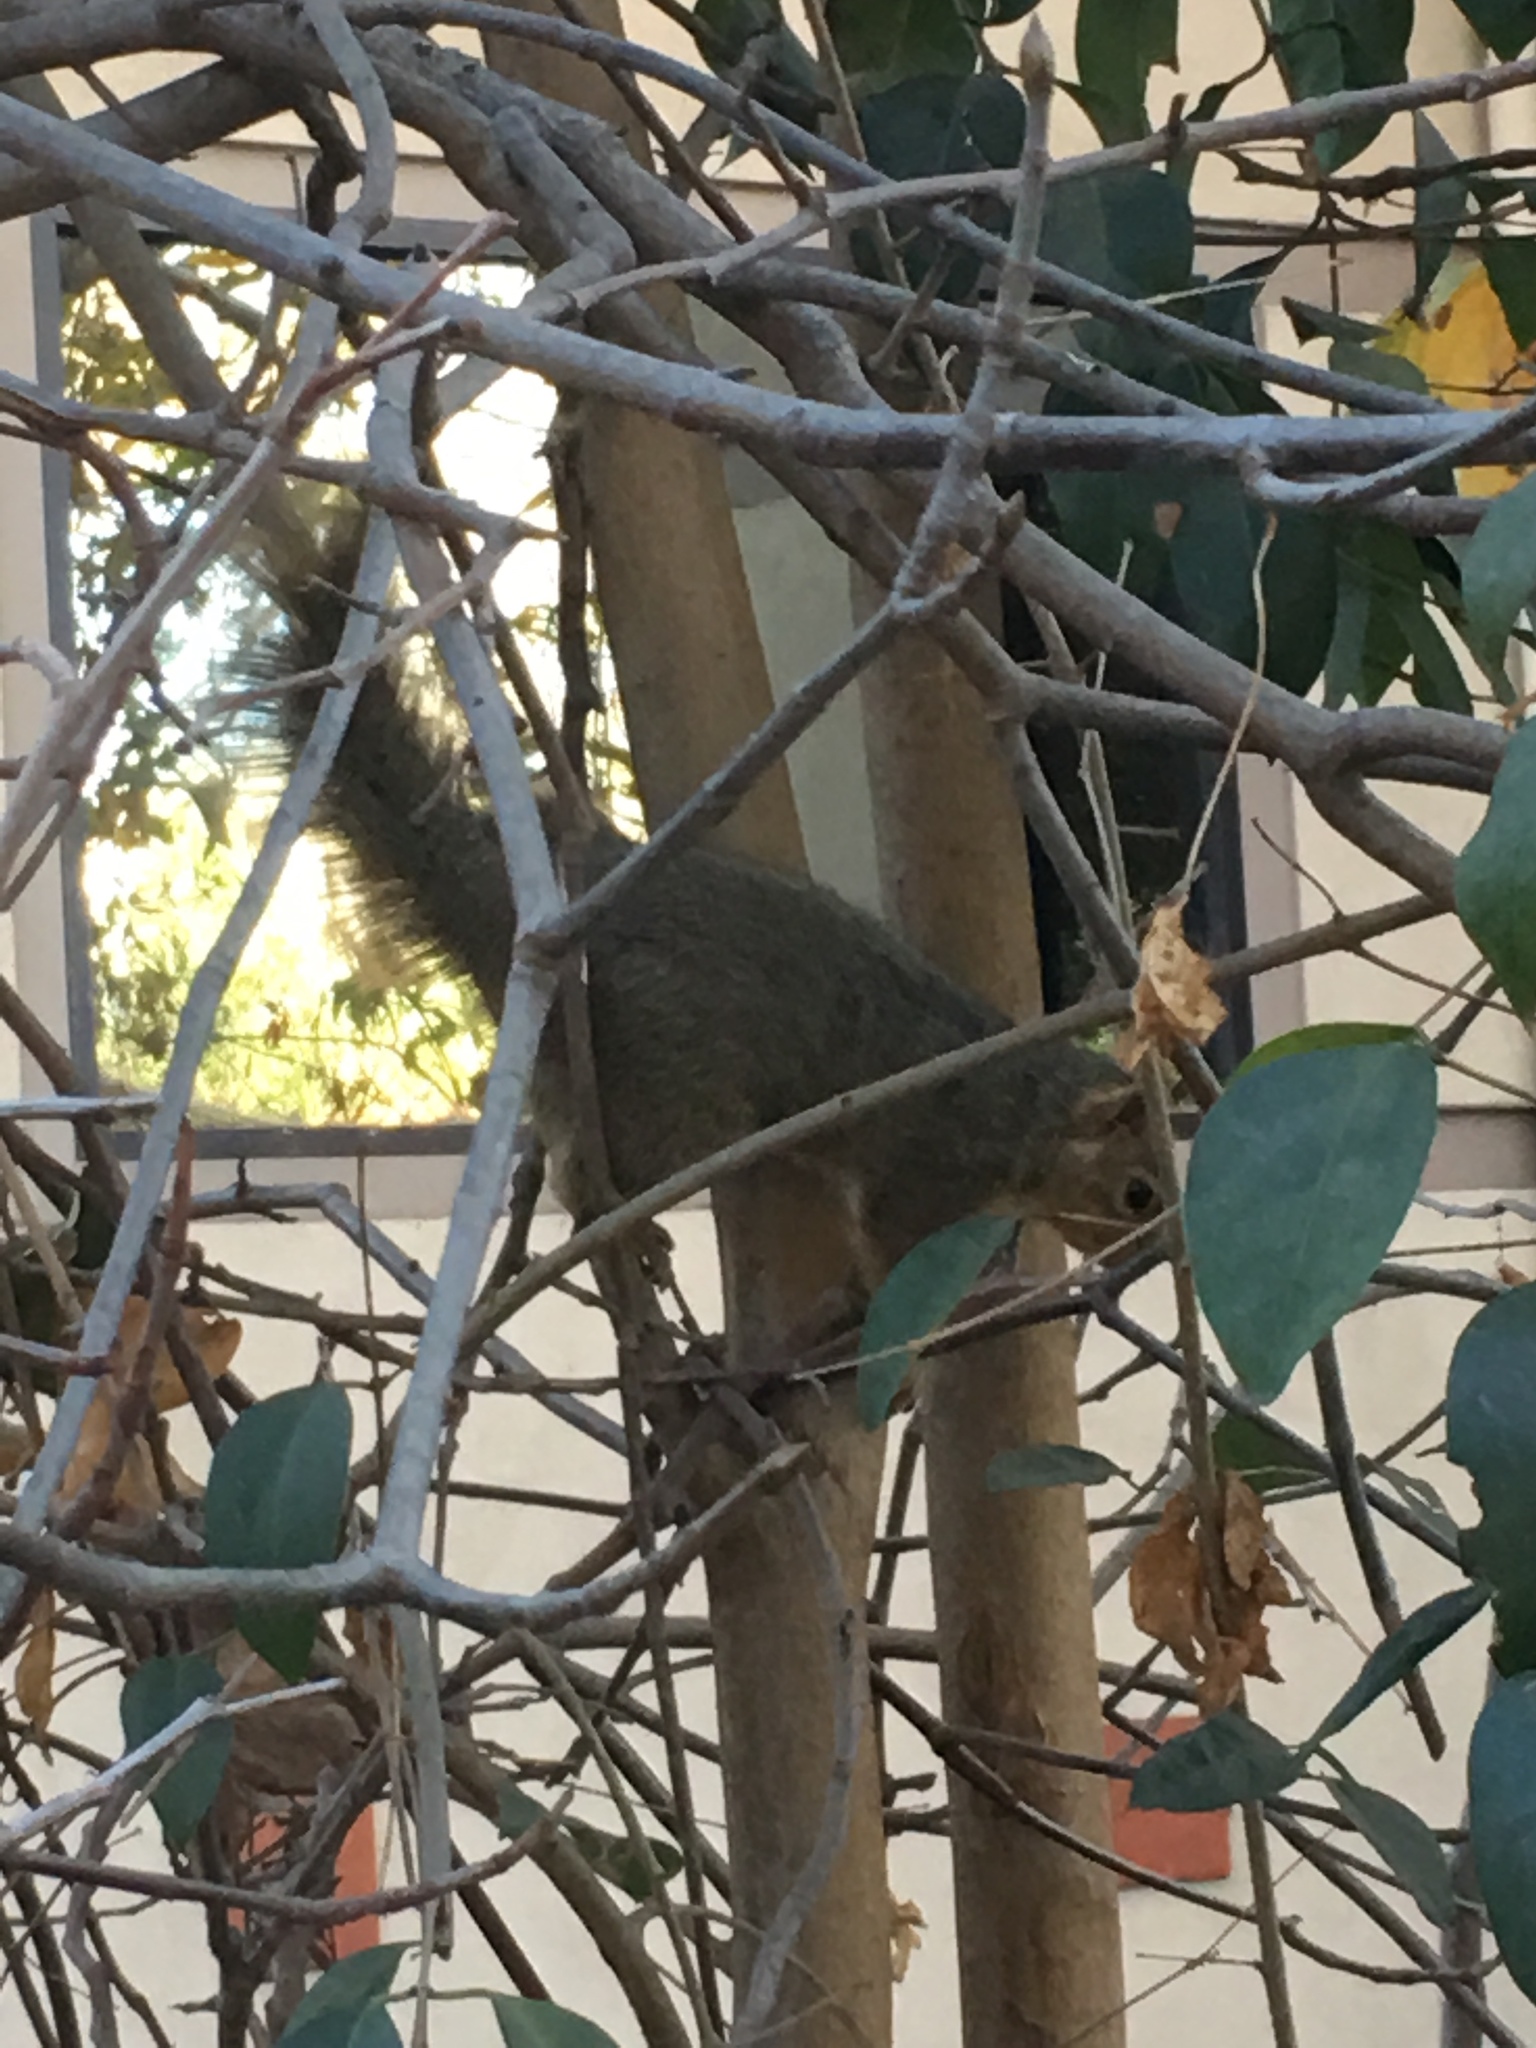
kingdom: Animalia
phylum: Chordata
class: Mammalia
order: Rodentia
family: Sciuridae
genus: Sciurus
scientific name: Sciurus niger
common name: Fox squirrel
